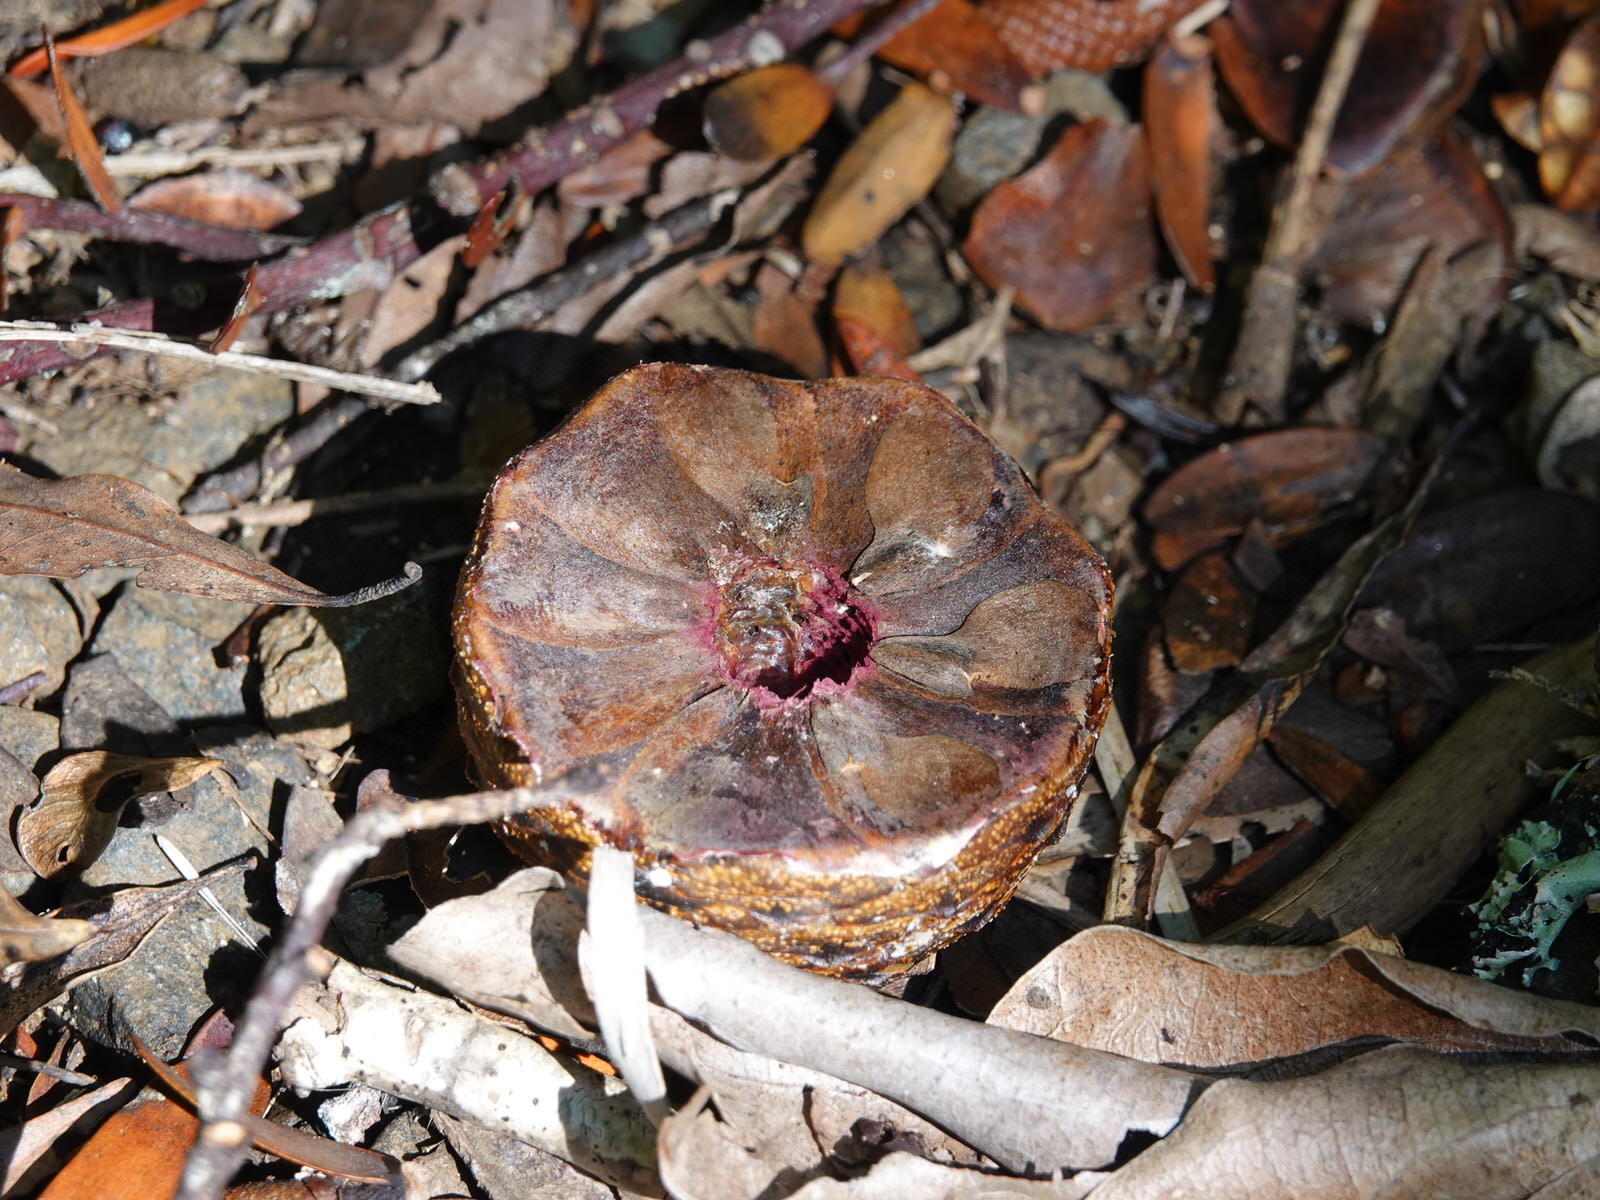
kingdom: Plantae
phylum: Tracheophyta
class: Pinopsida
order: Pinales
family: Araucariaceae
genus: Agathis
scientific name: Agathis australis
